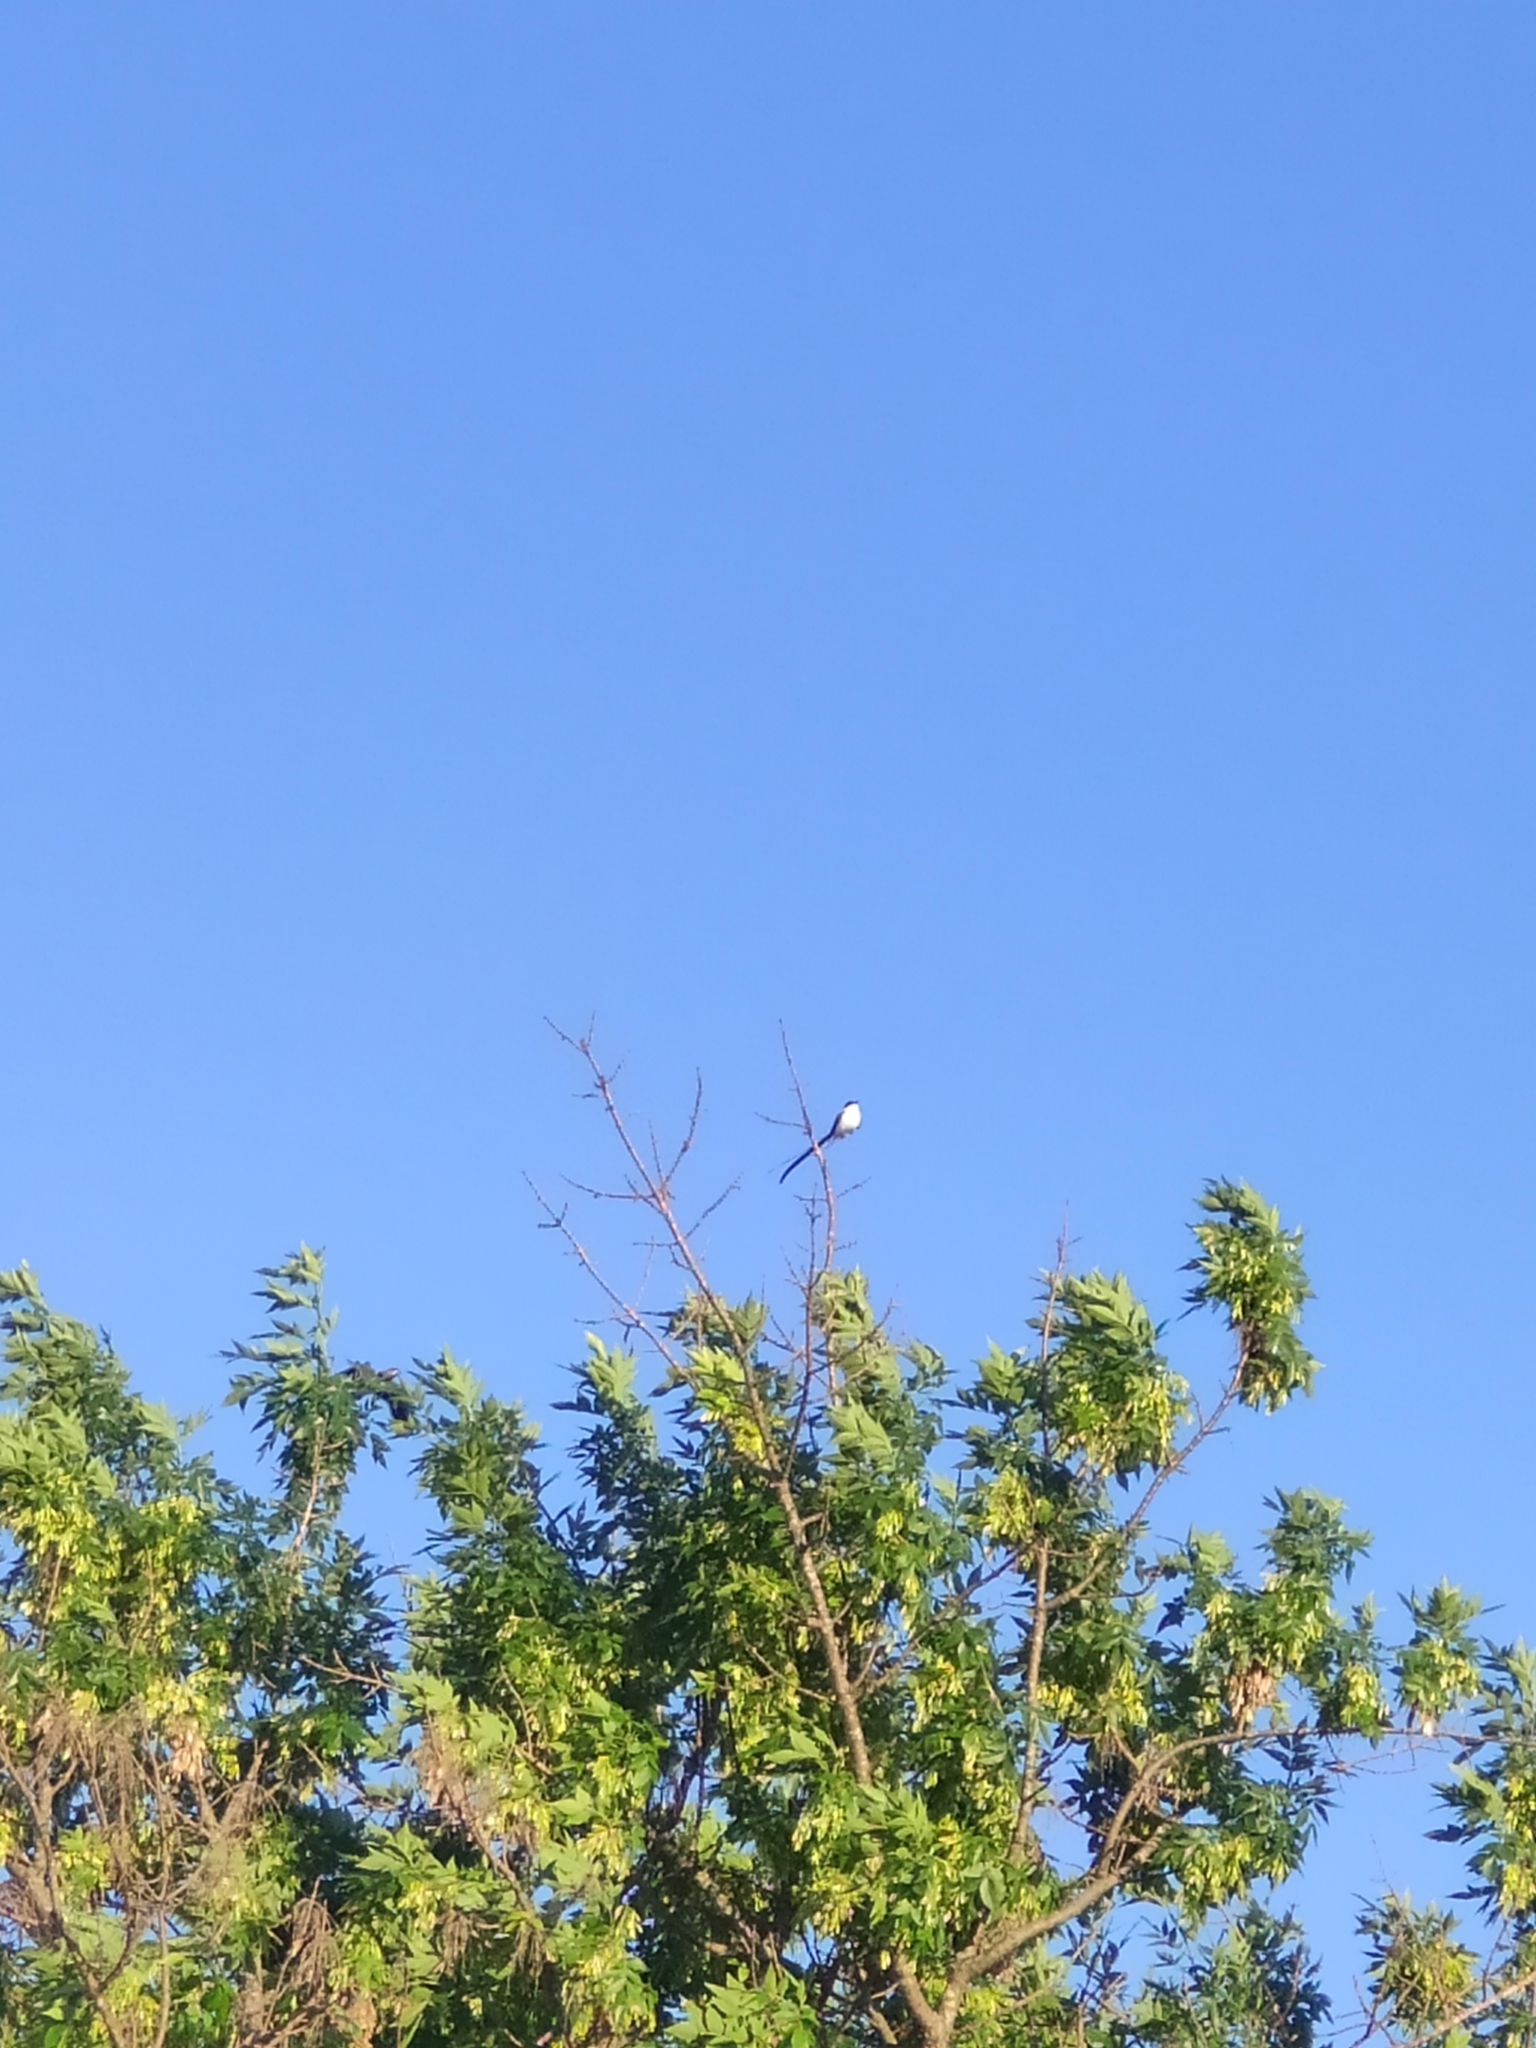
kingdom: Animalia
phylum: Chordata
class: Aves
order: Passeriformes
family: Tyrannidae
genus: Tyrannus
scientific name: Tyrannus savana
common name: Fork-tailed flycatcher
